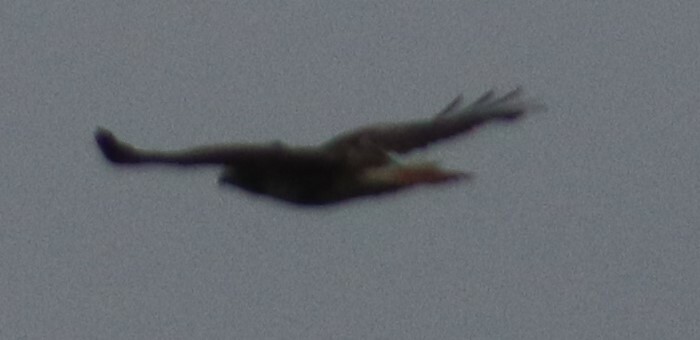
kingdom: Animalia
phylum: Chordata
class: Aves
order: Accipitriformes
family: Accipitridae
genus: Buteo
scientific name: Buteo jamaicensis
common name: Red-tailed hawk
